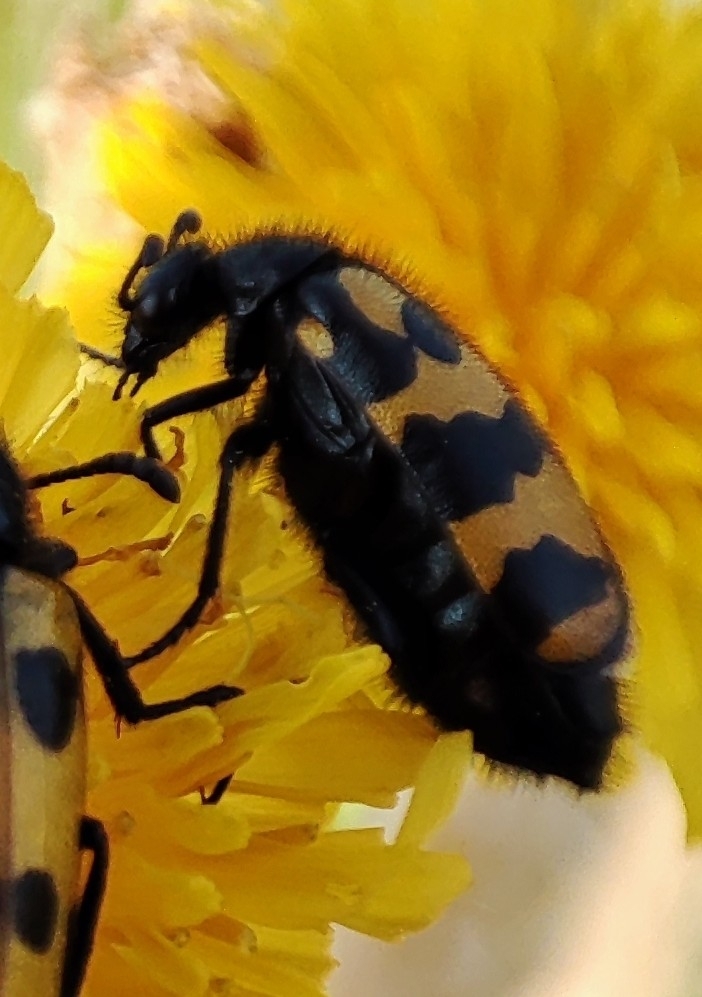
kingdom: Animalia
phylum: Arthropoda
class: Insecta
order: Coleoptera
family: Meloidae
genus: Hycleus
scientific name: Hycleus polymorphus
